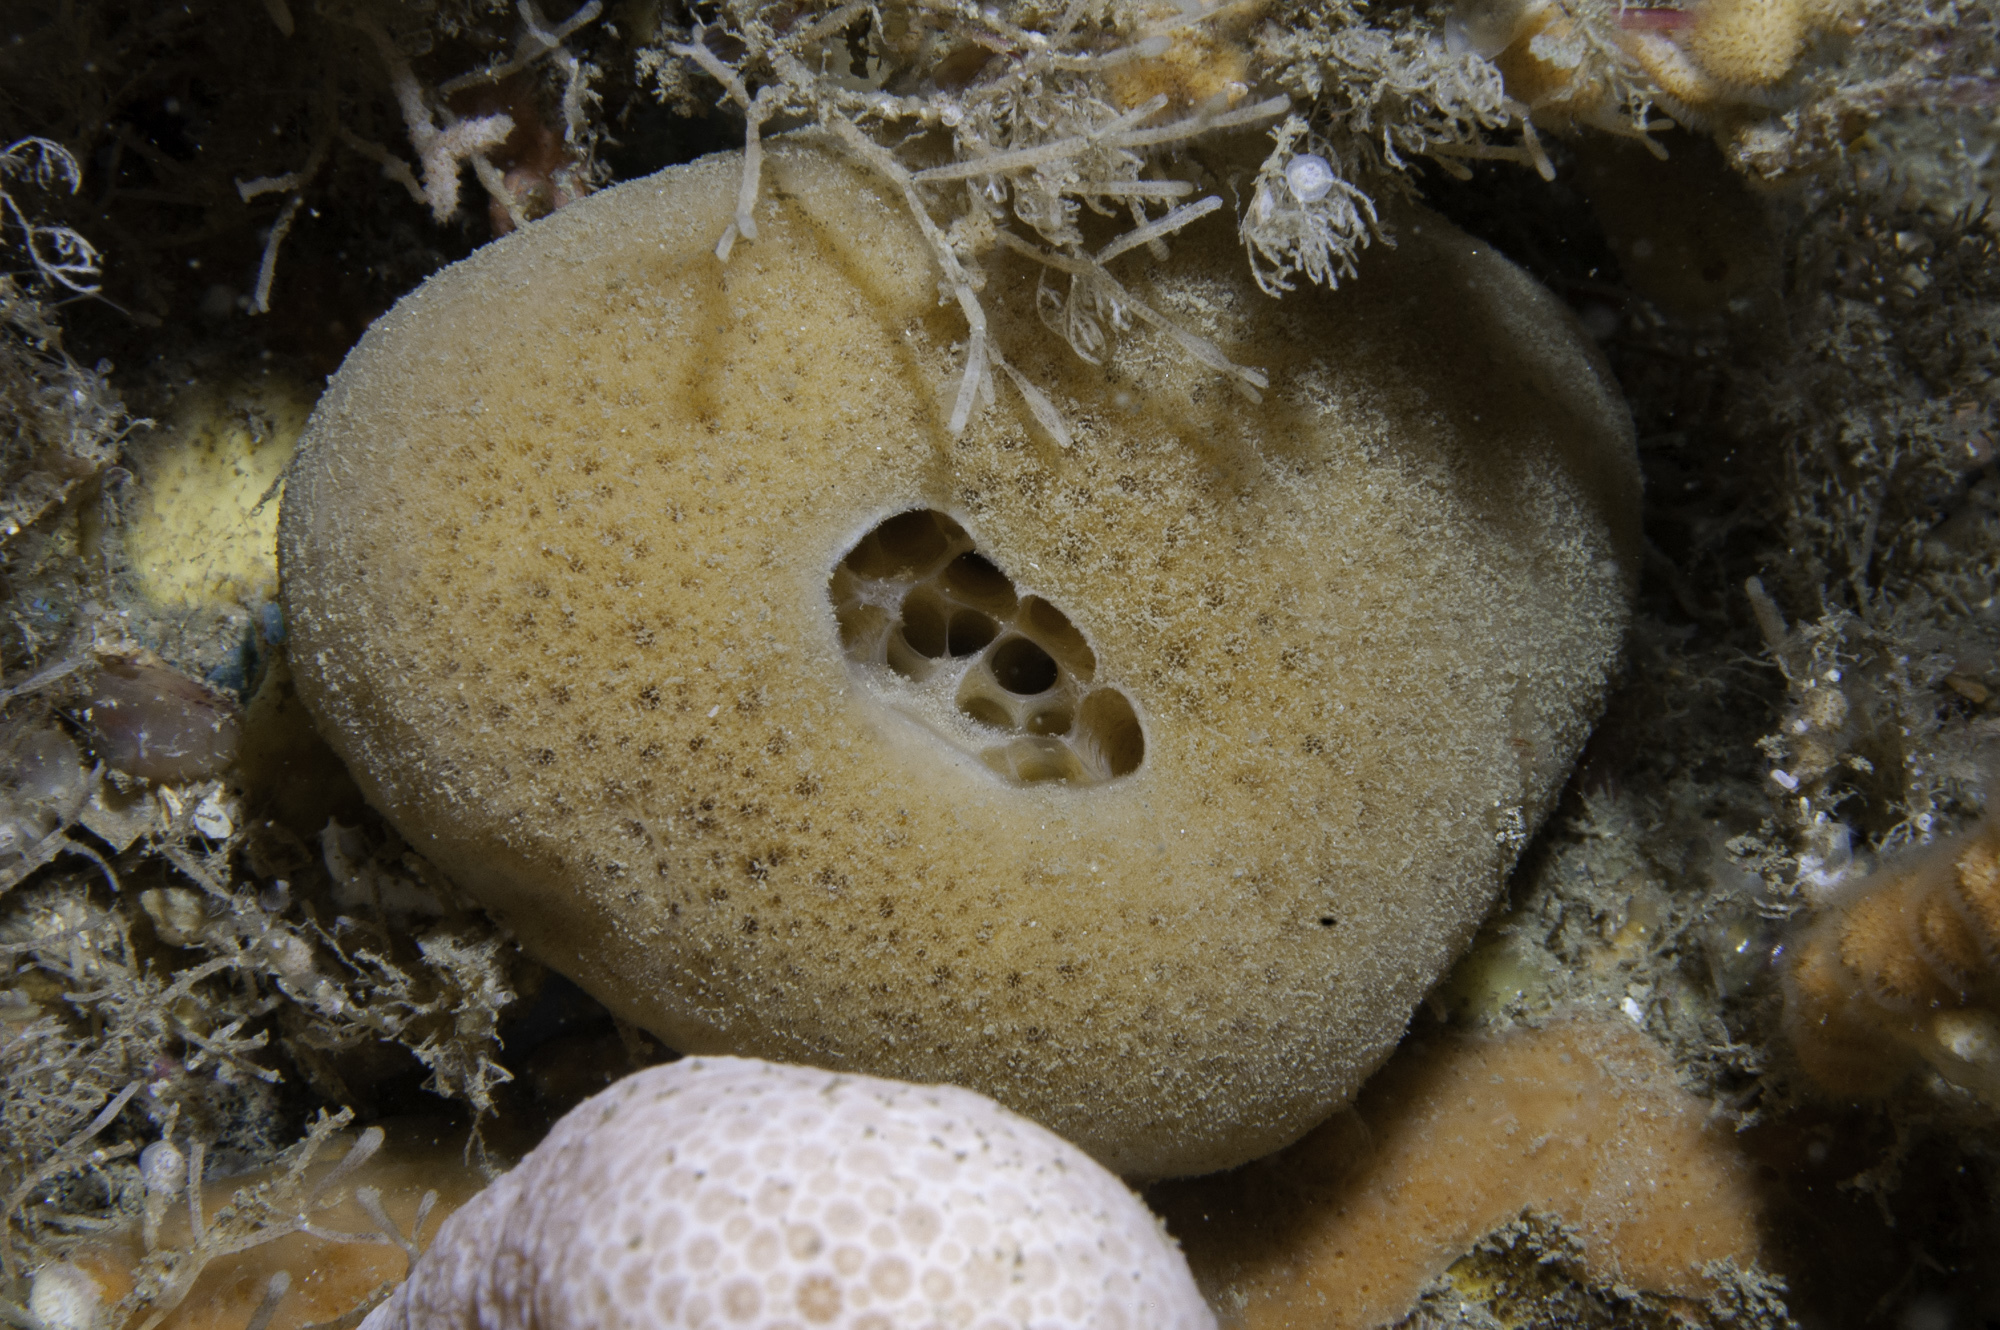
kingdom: Animalia
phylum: Porifera
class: Demospongiae
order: Suberitida
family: Suberitidae
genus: Suberites
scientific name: Suberites carnosus
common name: Fleshy horny sponge
